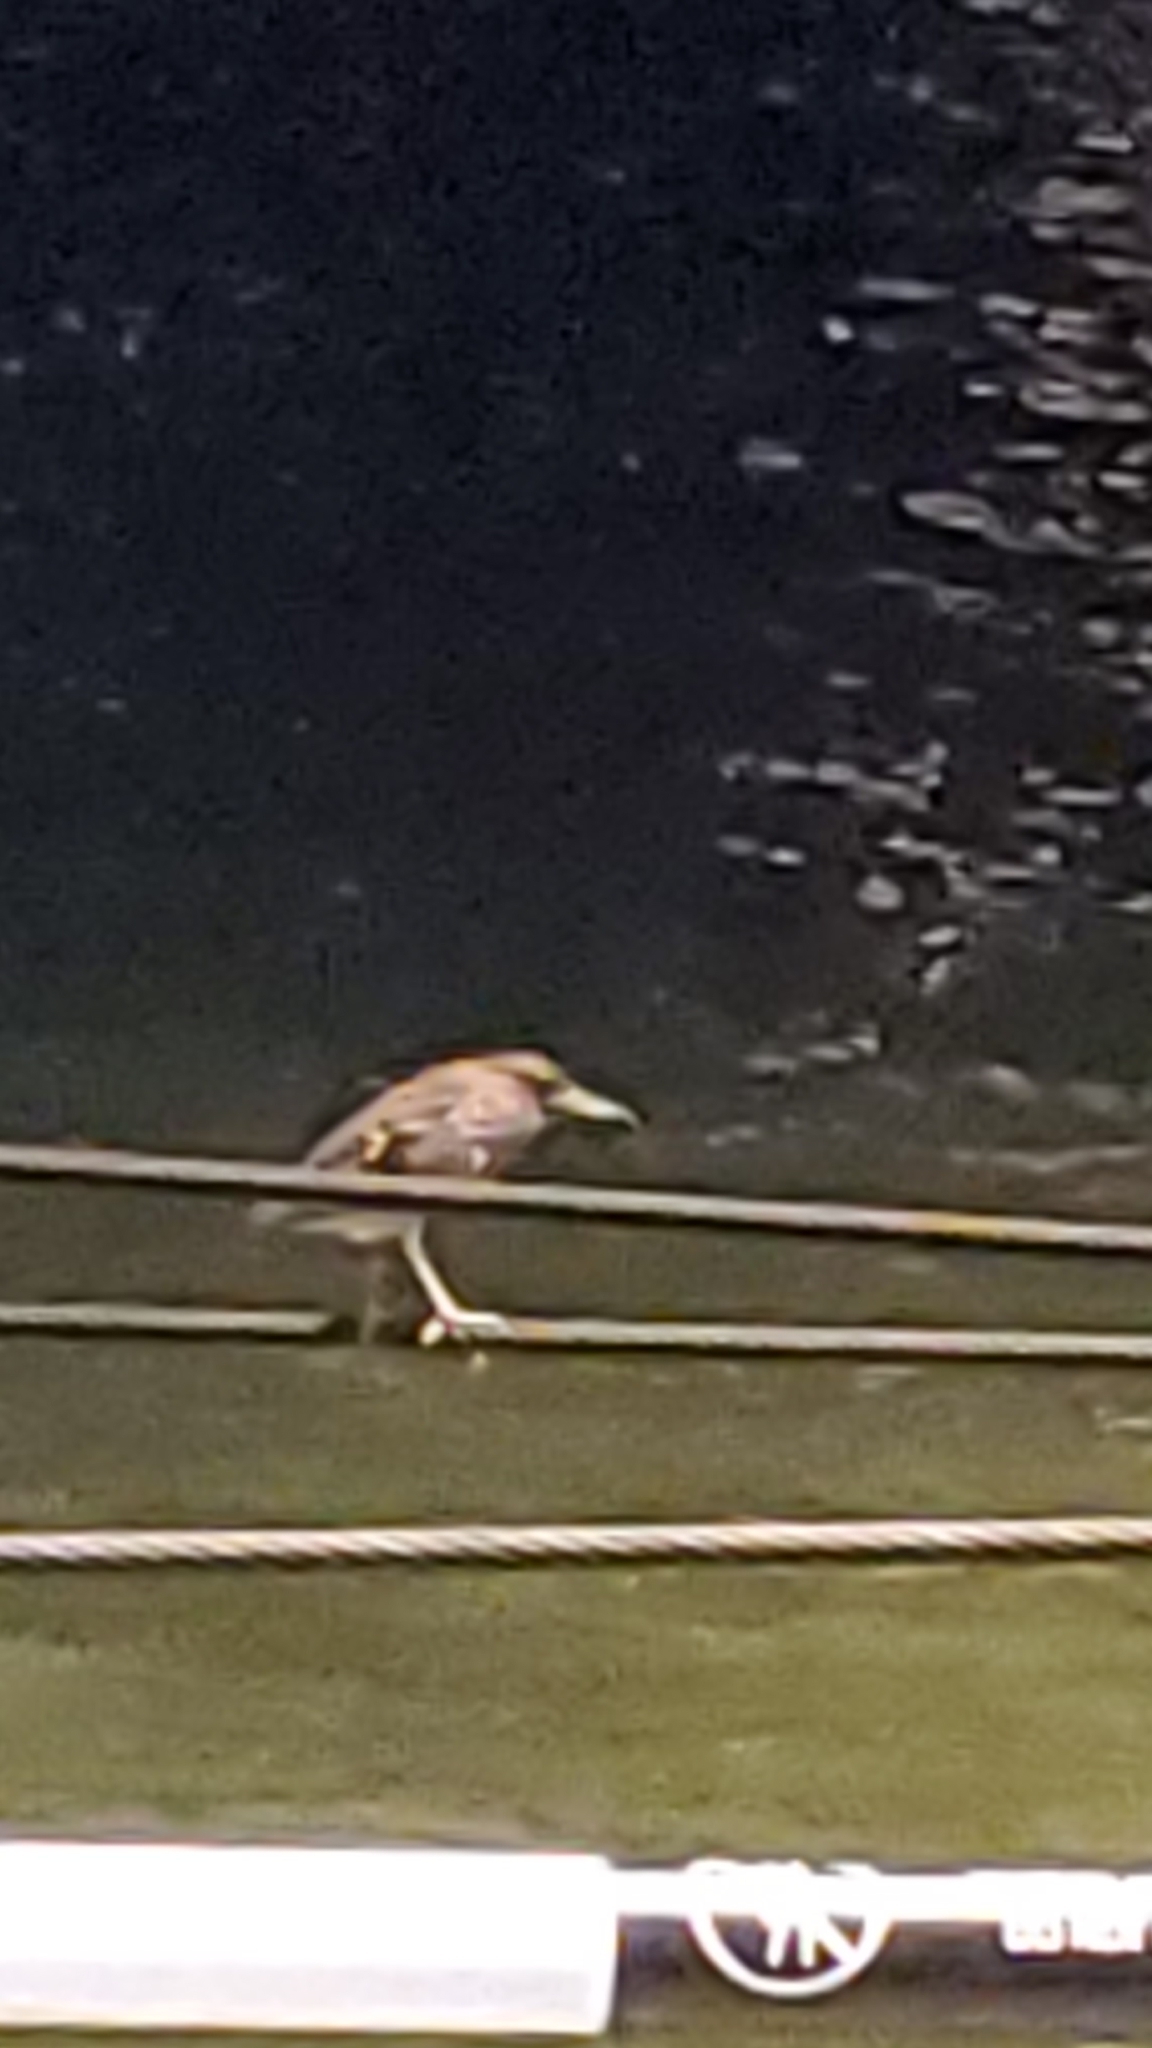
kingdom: Animalia
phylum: Chordata
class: Aves
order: Pelecaniformes
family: Ardeidae
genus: Nycticorax
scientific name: Nycticorax nycticorax
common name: Black-crowned night heron
